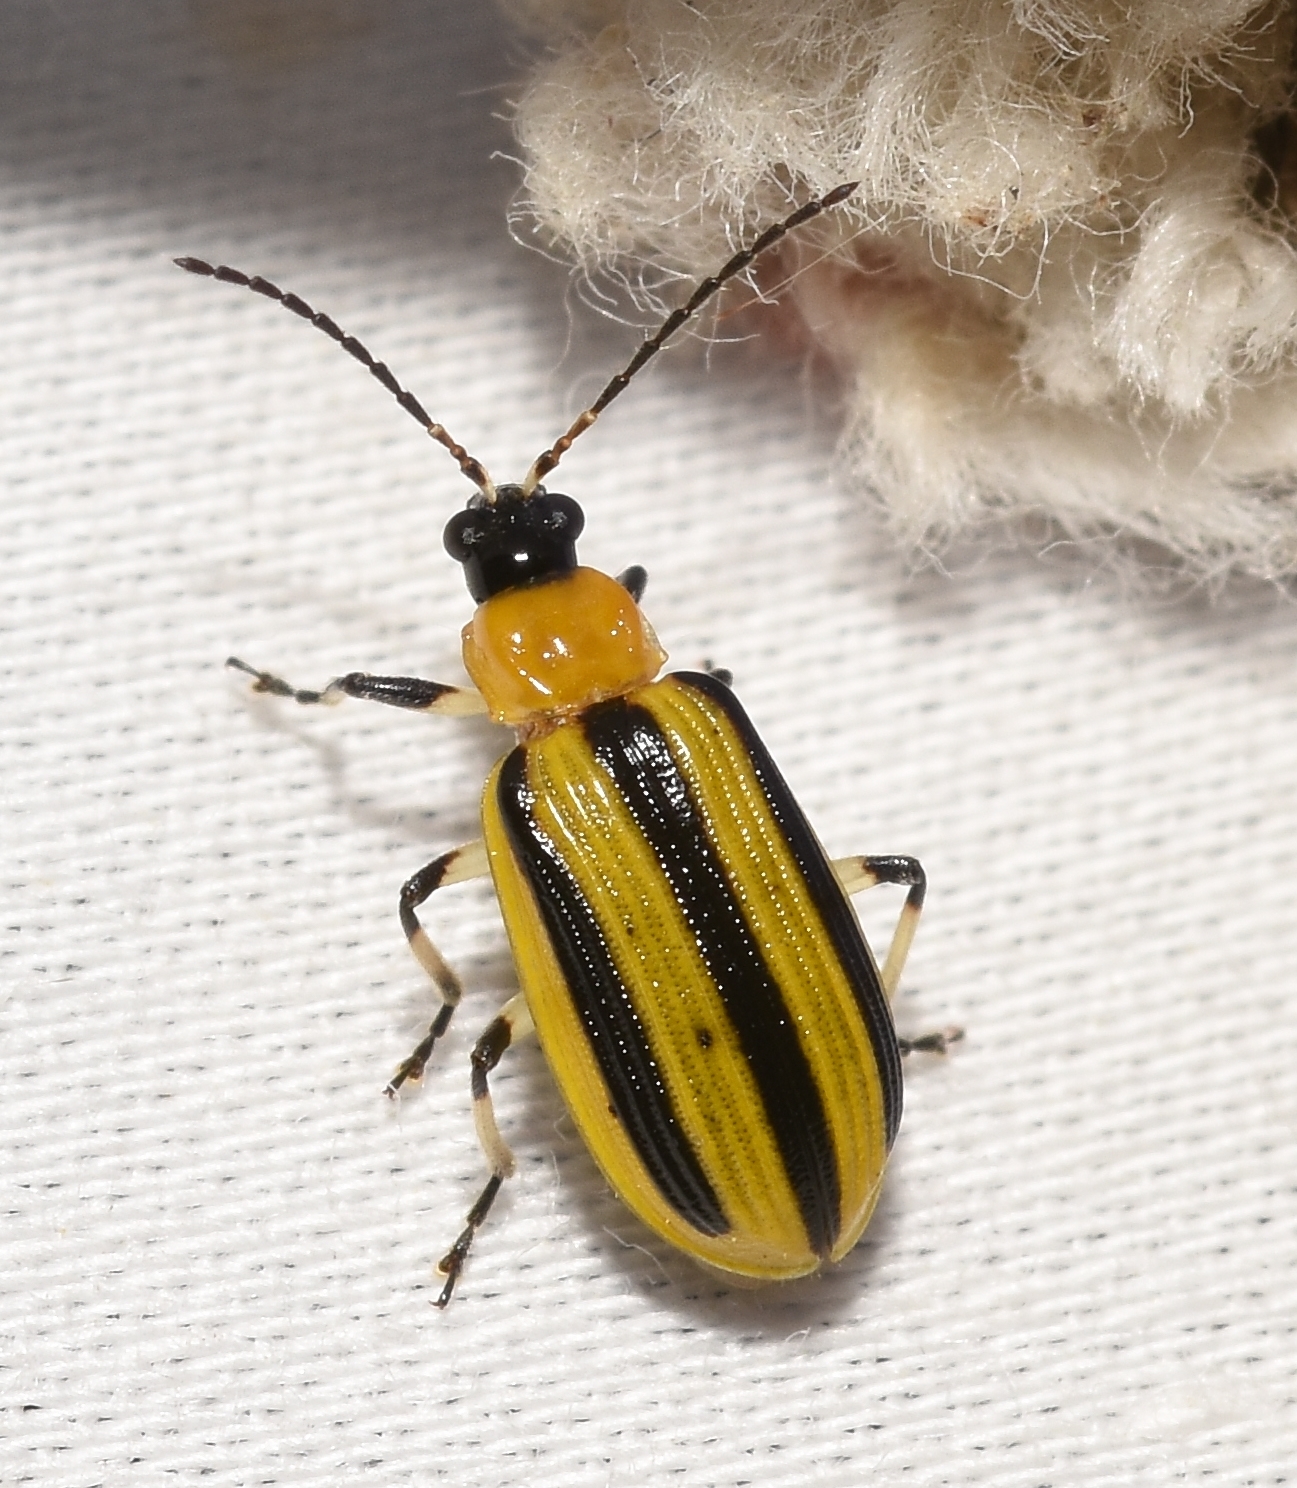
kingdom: Animalia
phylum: Arthropoda
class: Insecta
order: Coleoptera
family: Chrysomelidae
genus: Acalymma
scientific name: Acalymma vittatum
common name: Striped cucumber beetle
